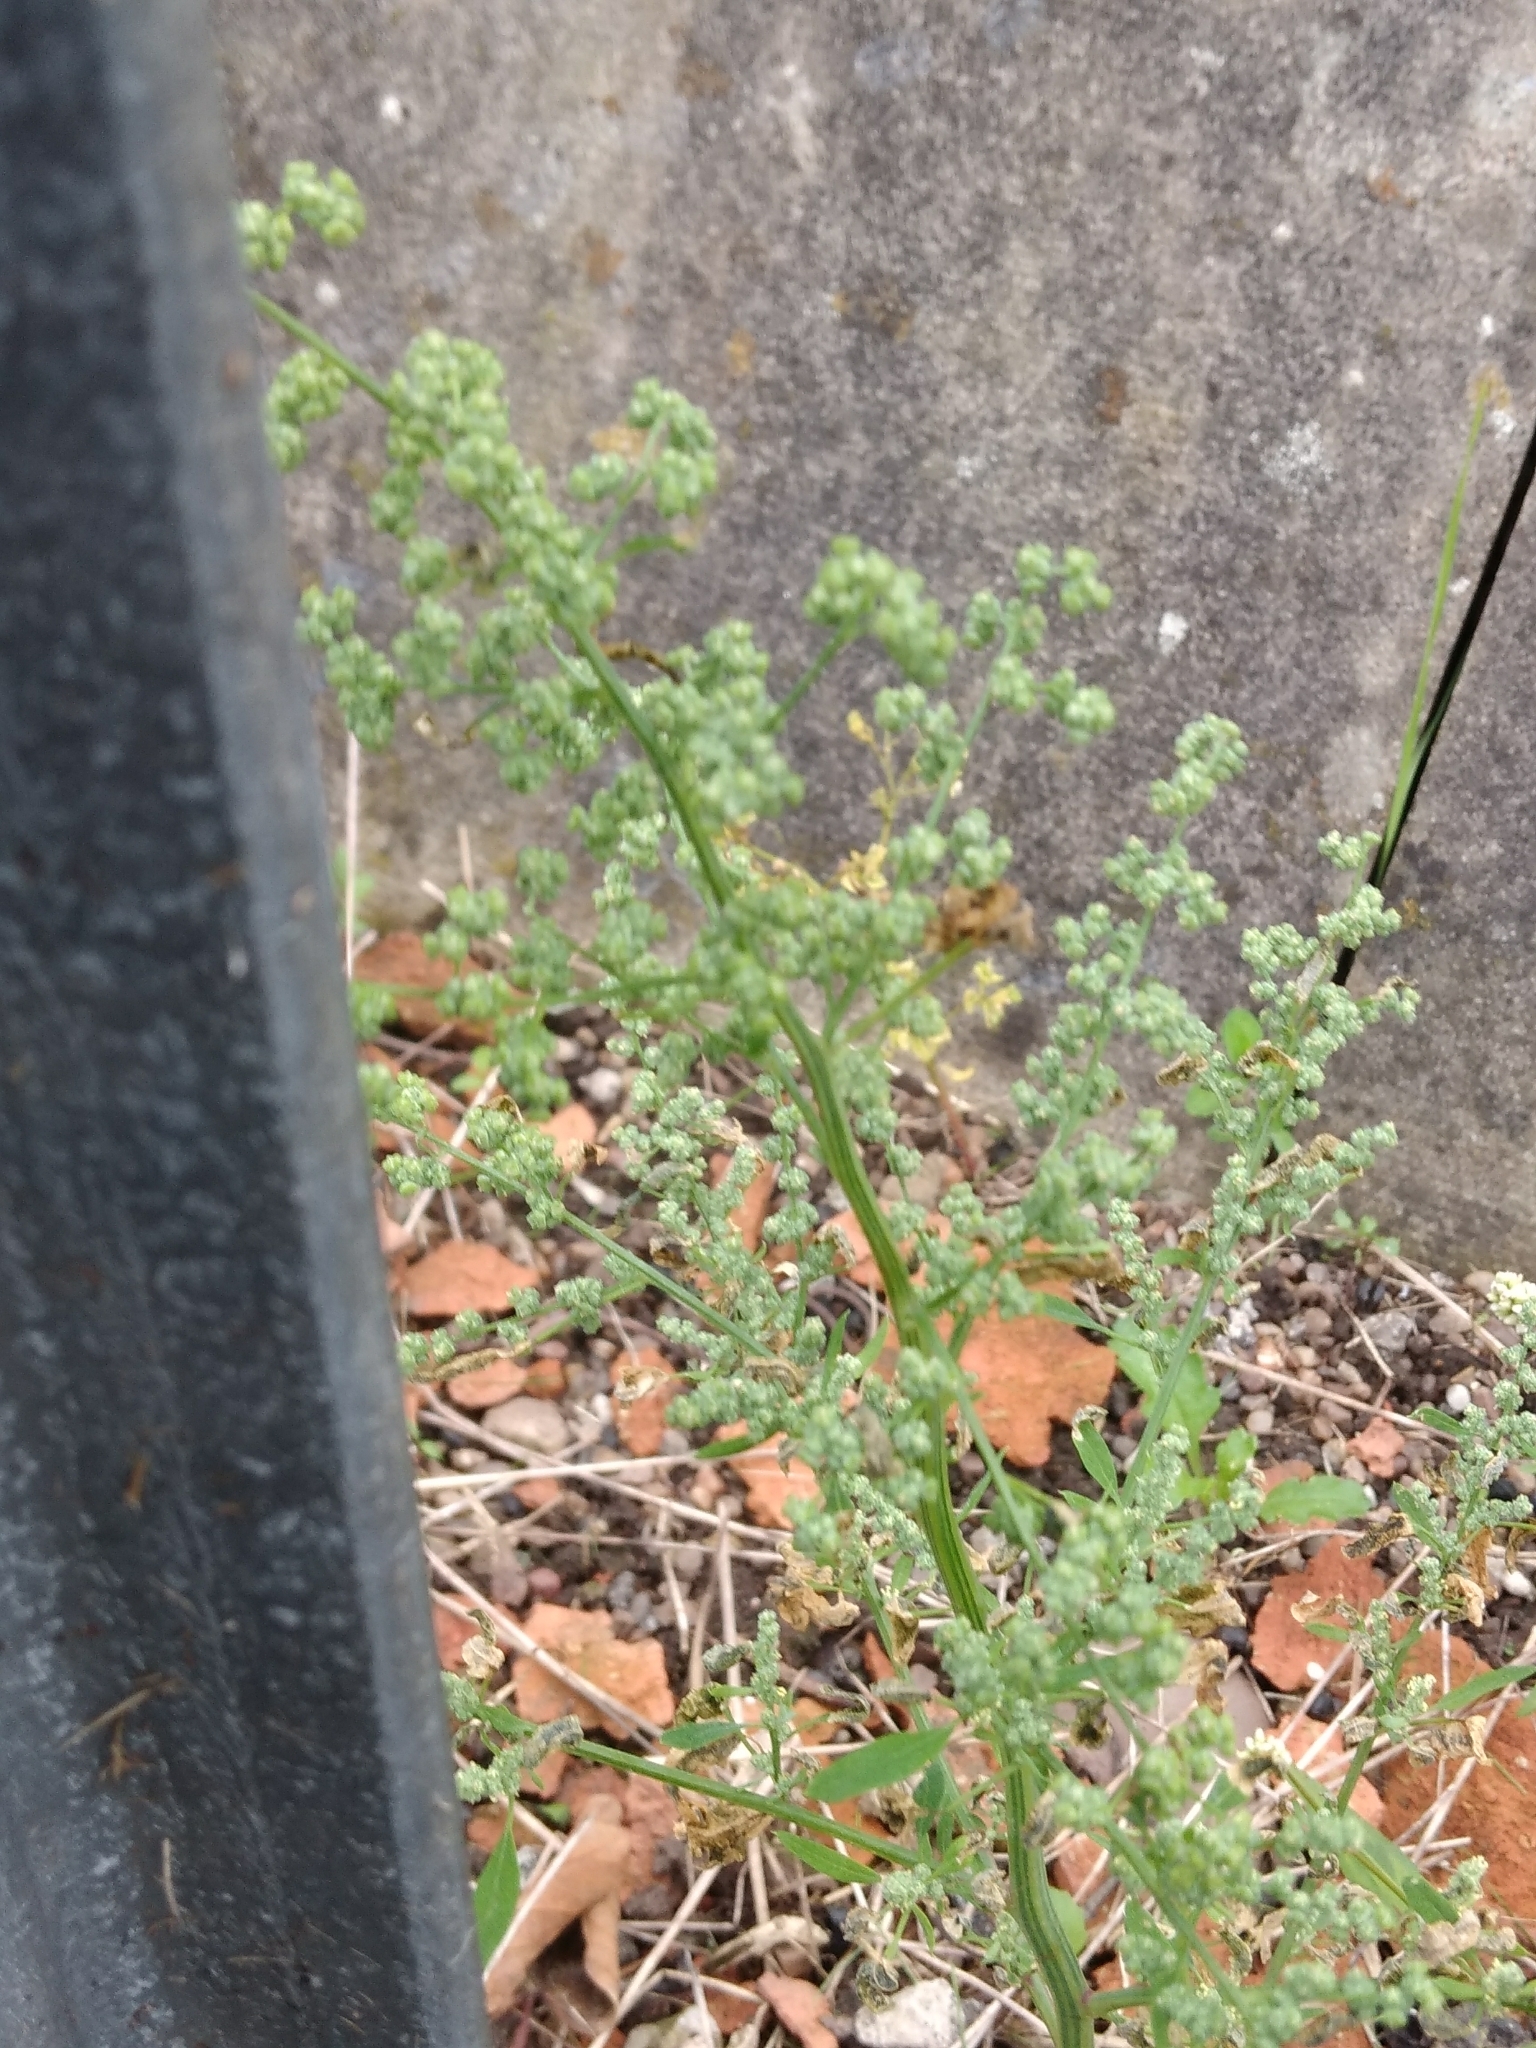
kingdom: Plantae
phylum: Tracheophyta
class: Magnoliopsida
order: Caryophyllales
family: Amaranthaceae
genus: Chenopodium
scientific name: Chenopodium album
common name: Fat-hen
